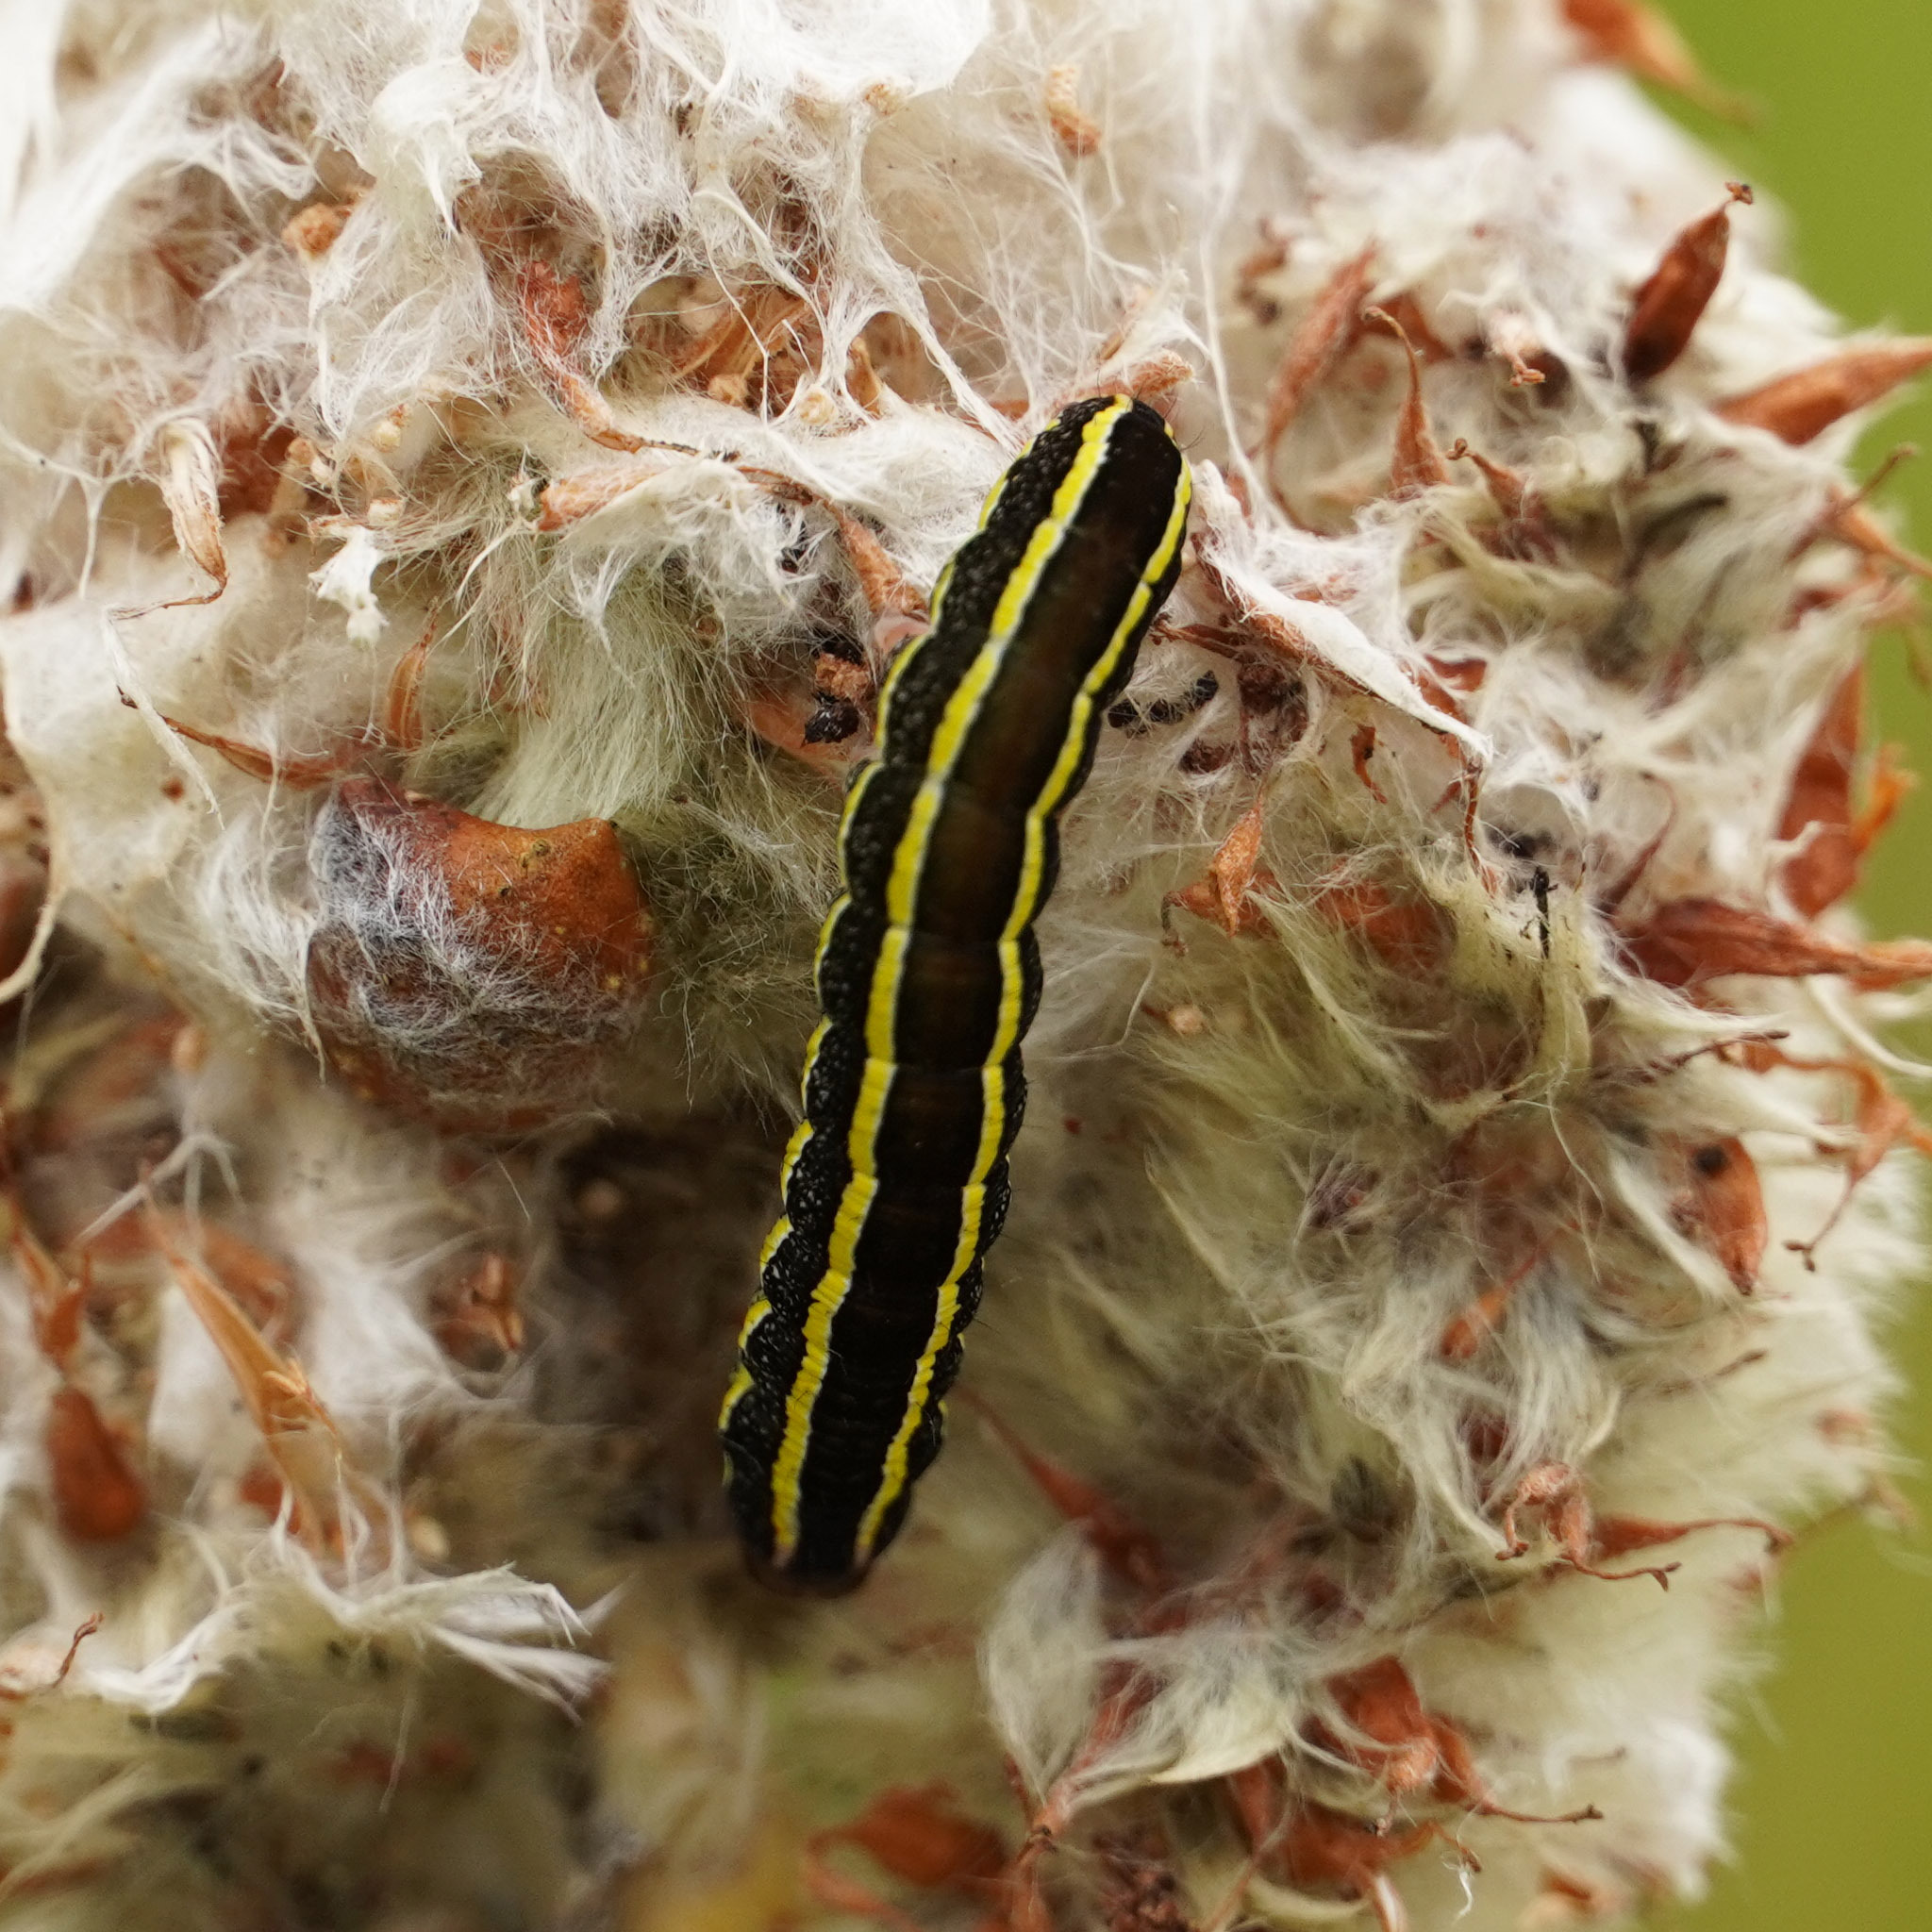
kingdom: Animalia
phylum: Arthropoda
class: Insecta
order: Lepidoptera
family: Noctuidae
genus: Ceramica
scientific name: Ceramica pisi
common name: Broom moth
